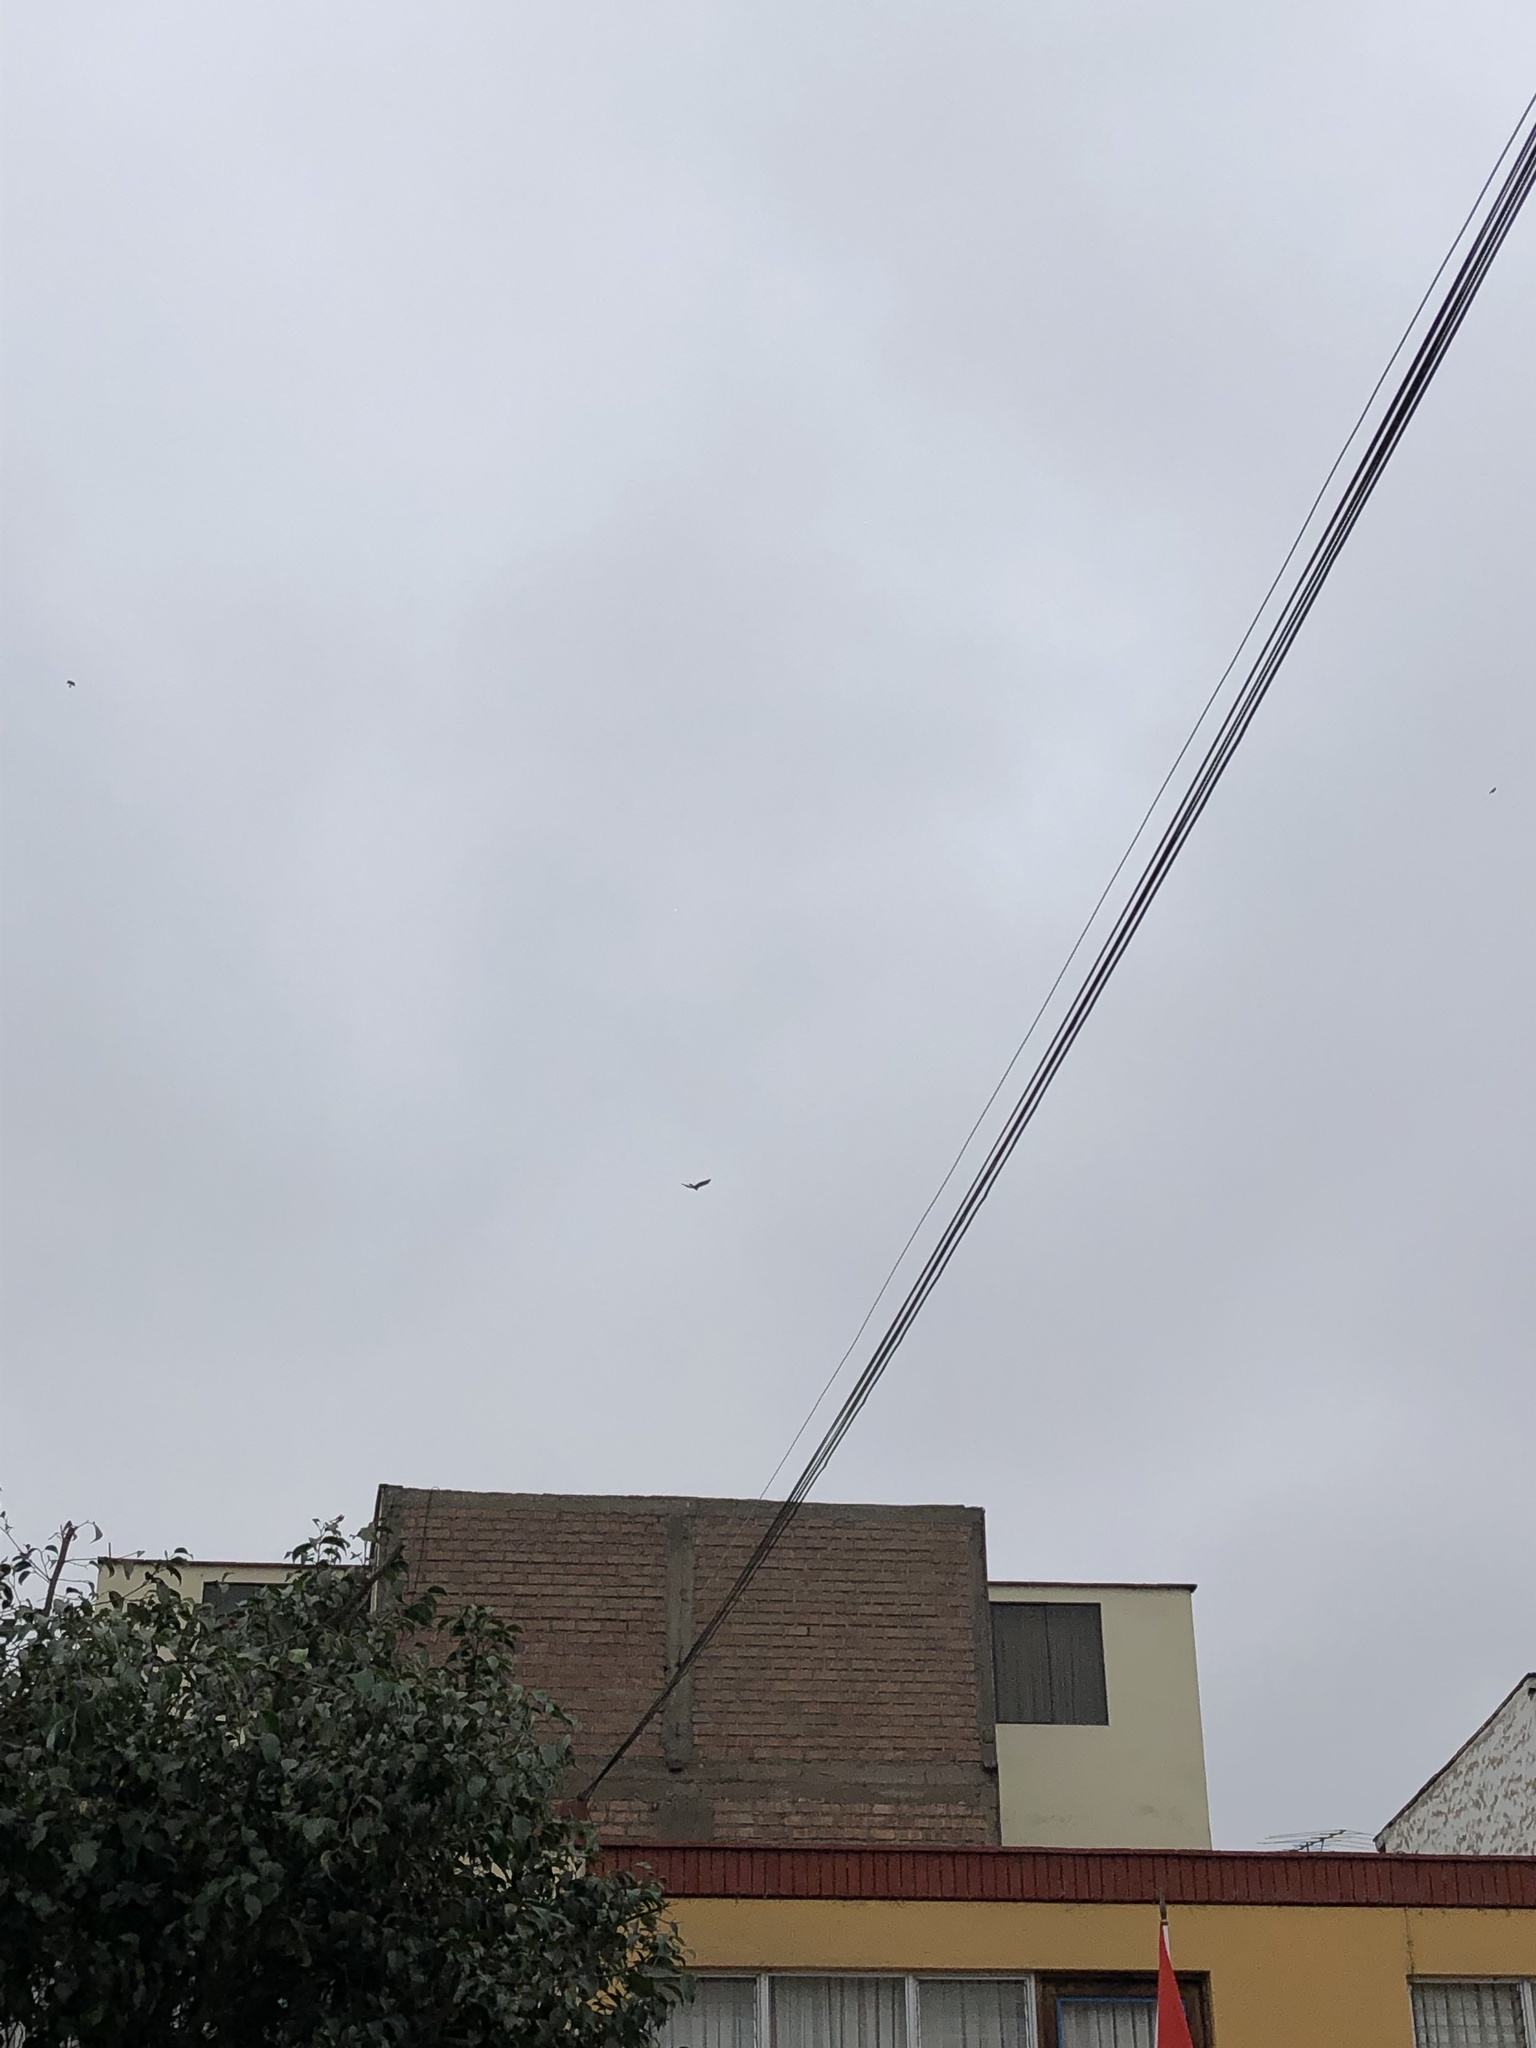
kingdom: Animalia
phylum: Chordata
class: Aves
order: Accipitriformes
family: Accipitridae
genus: Parabuteo
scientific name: Parabuteo unicinctus
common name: Harris's hawk
